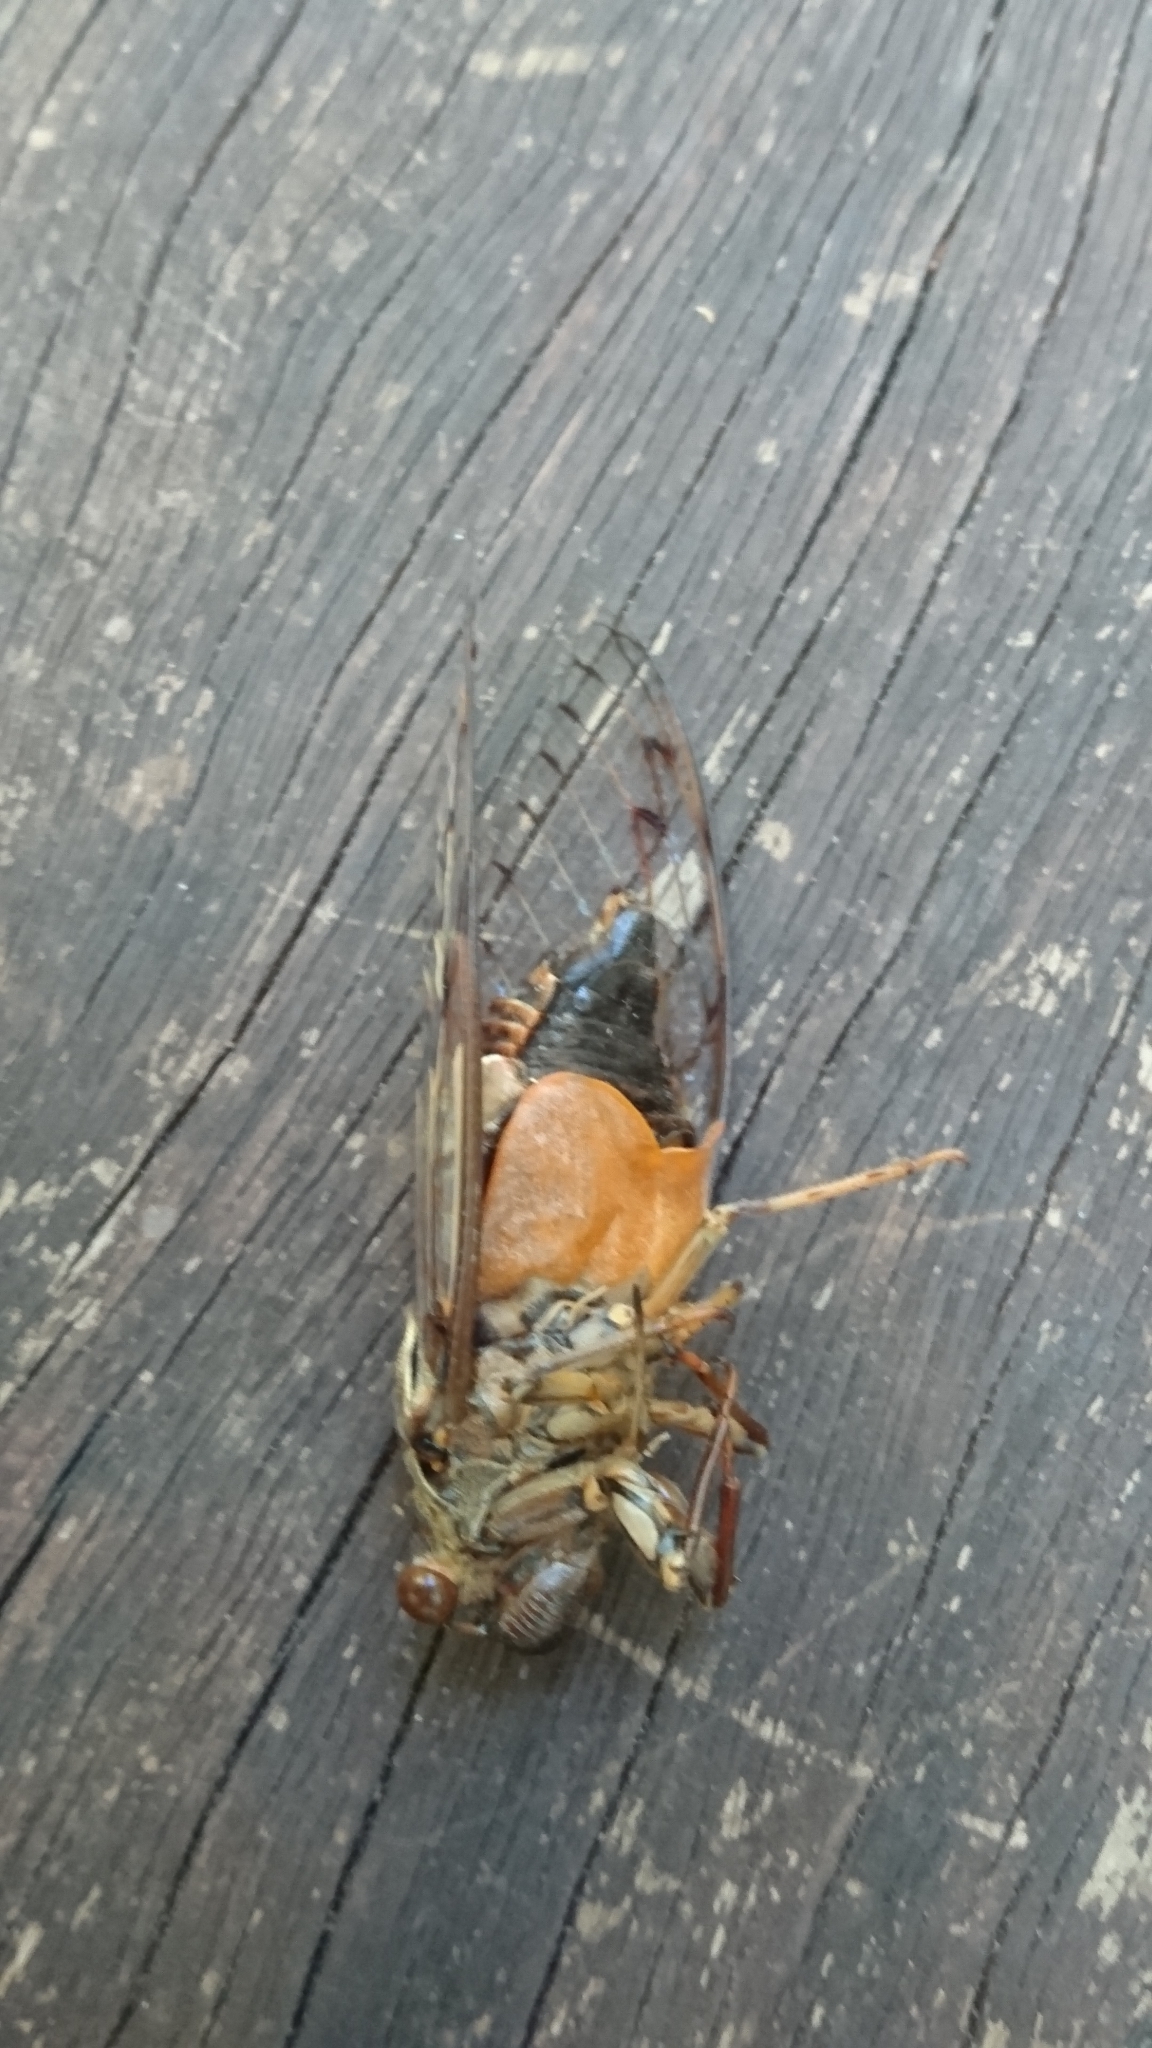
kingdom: Animalia
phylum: Arthropoda
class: Insecta
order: Hemiptera
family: Cicadidae
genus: Henicopsaltria
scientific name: Henicopsaltria eydouxii
